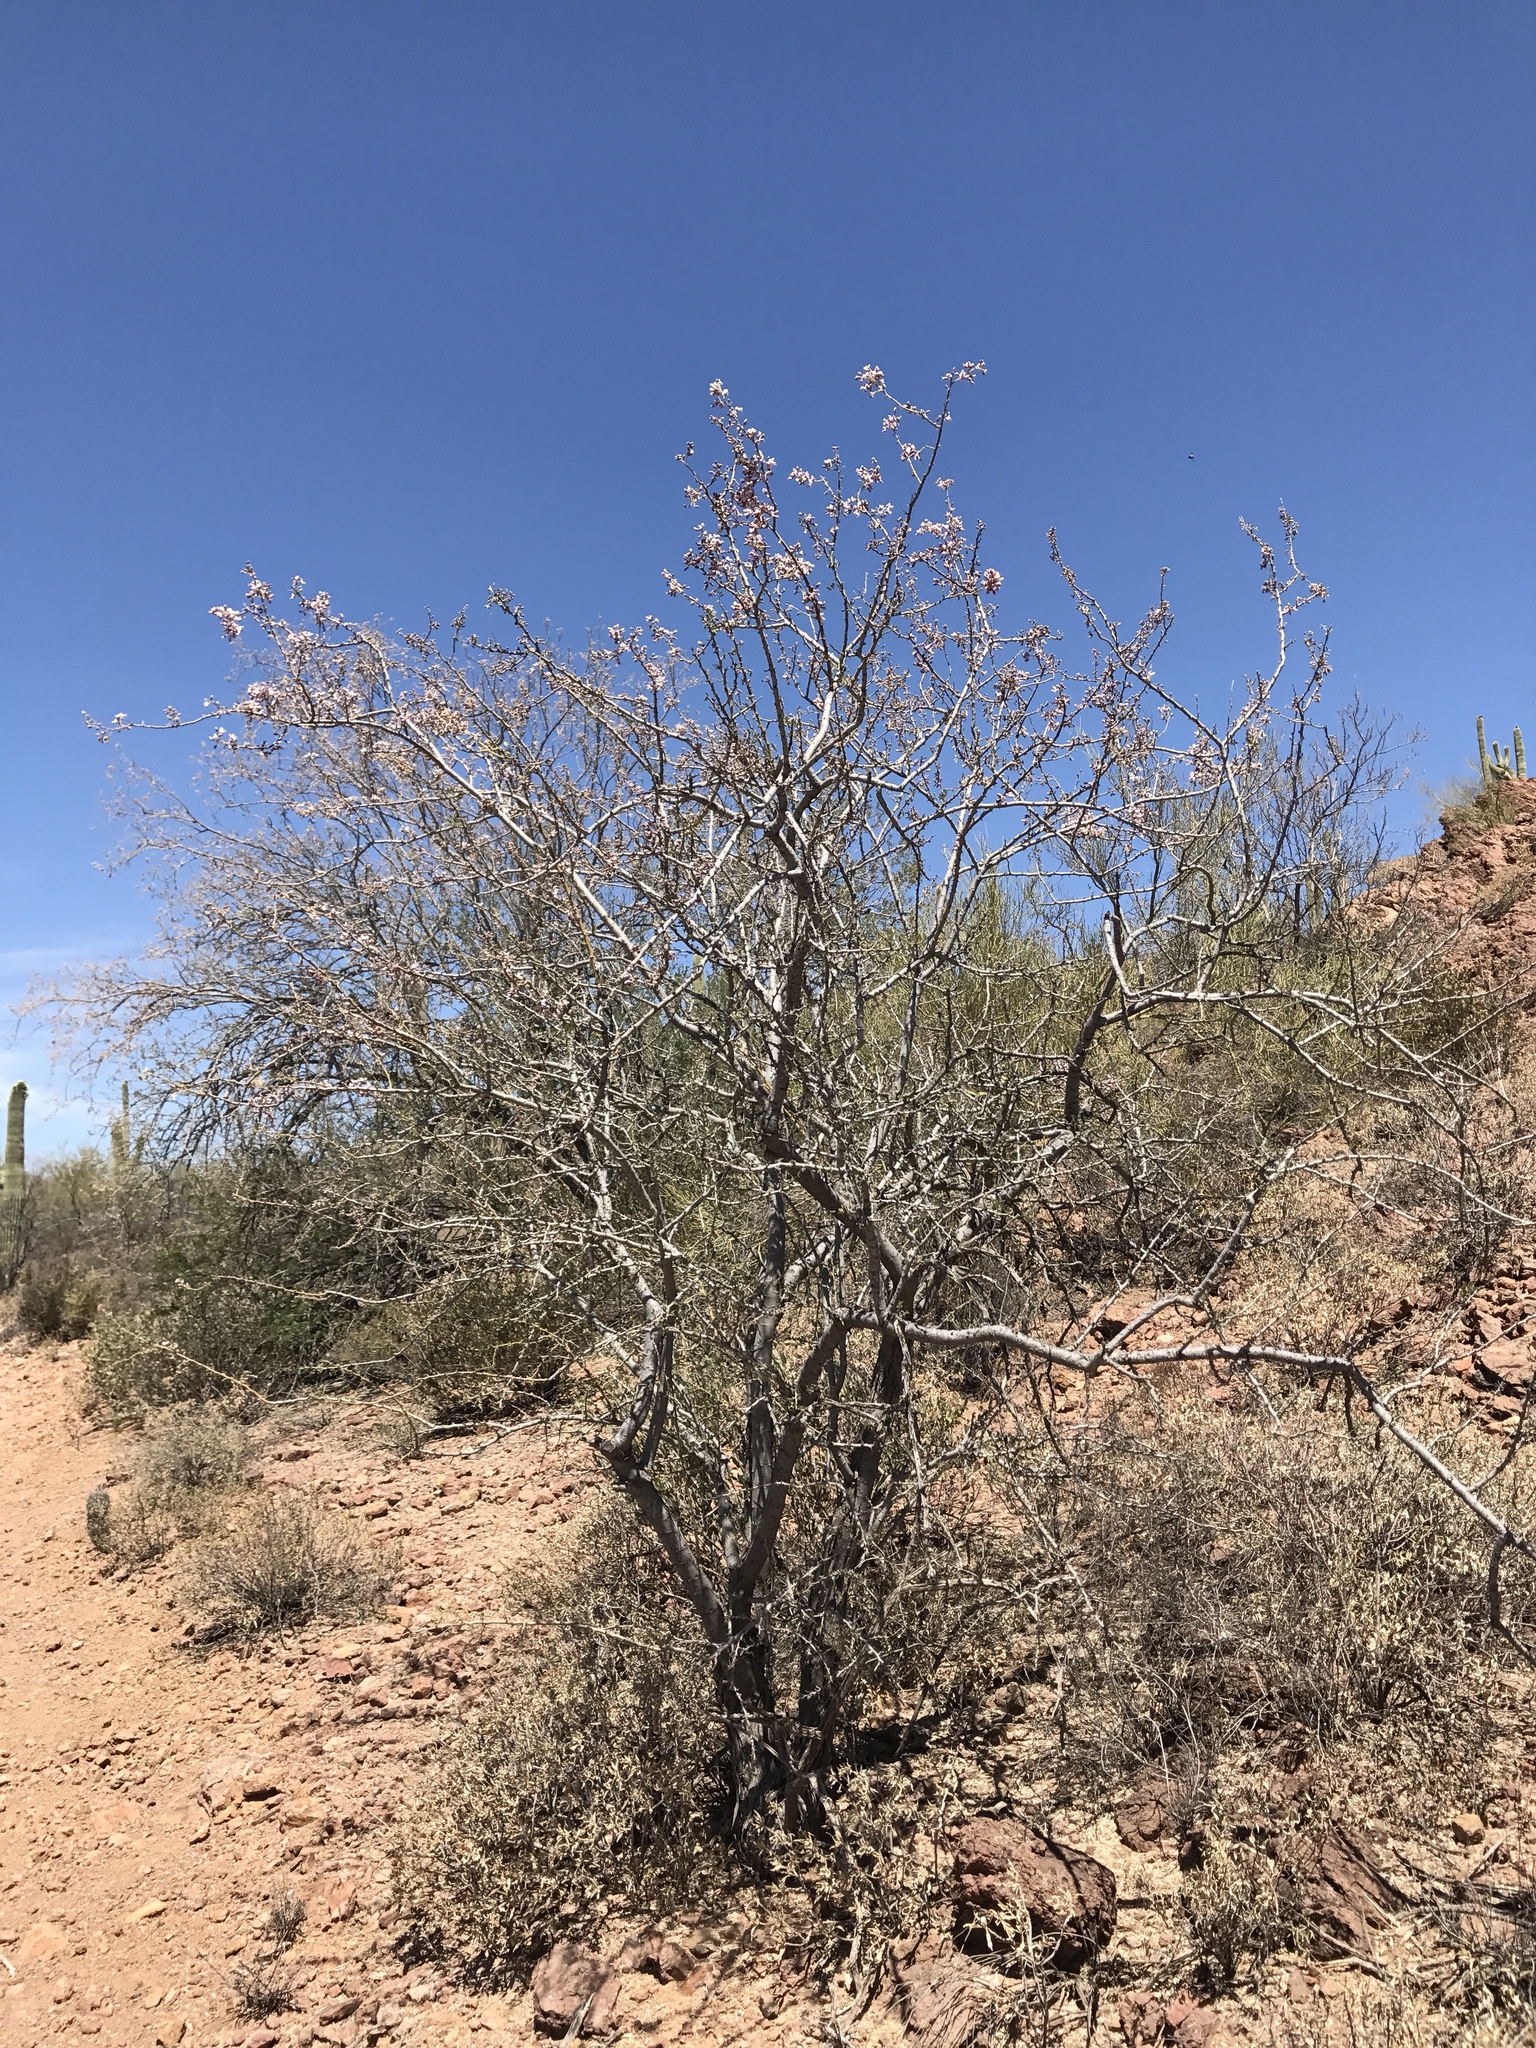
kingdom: Plantae
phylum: Tracheophyta
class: Magnoliopsida
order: Fabales
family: Fabaceae
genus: Olneya
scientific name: Olneya tesota
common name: Desert ironwood
